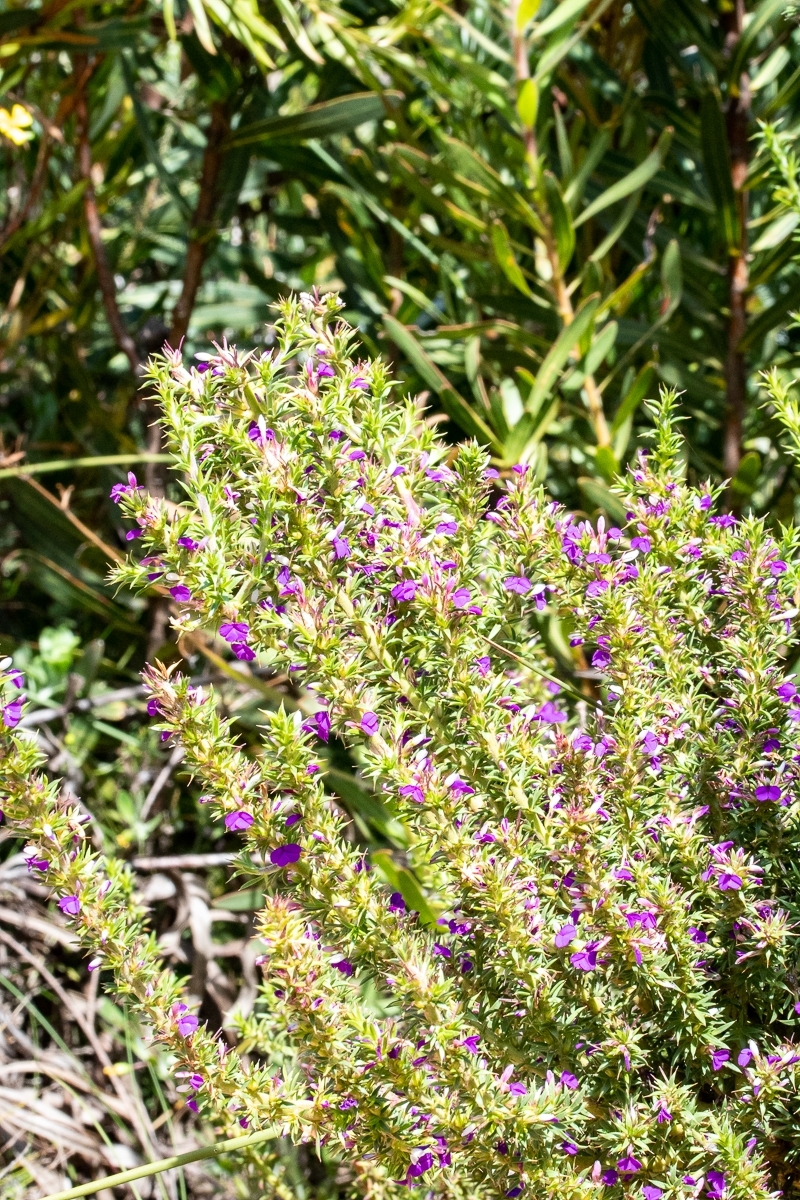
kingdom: Plantae
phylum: Tracheophyta
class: Magnoliopsida
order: Fabales
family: Polygalaceae
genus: Muraltia
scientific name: Muraltia heisteria
